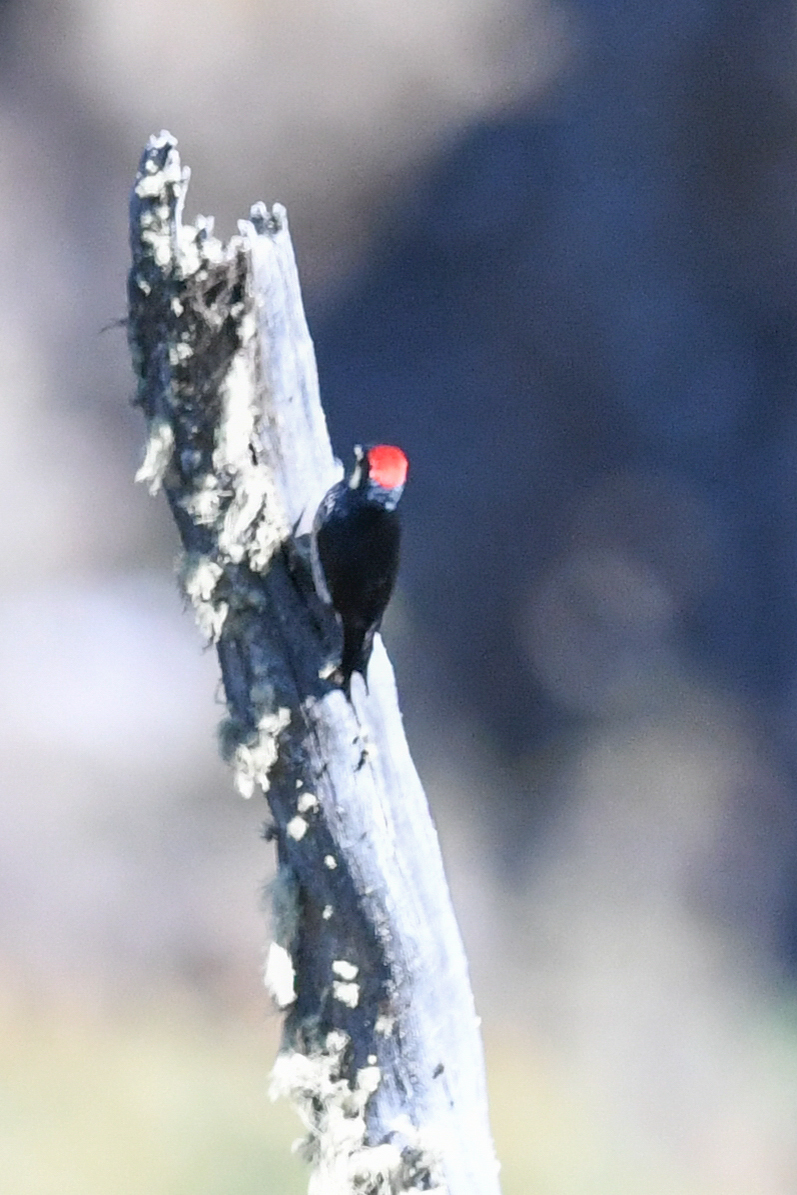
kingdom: Animalia
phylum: Chordata
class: Aves
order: Piciformes
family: Picidae
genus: Melanerpes
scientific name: Melanerpes formicivorus
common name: Acorn woodpecker
